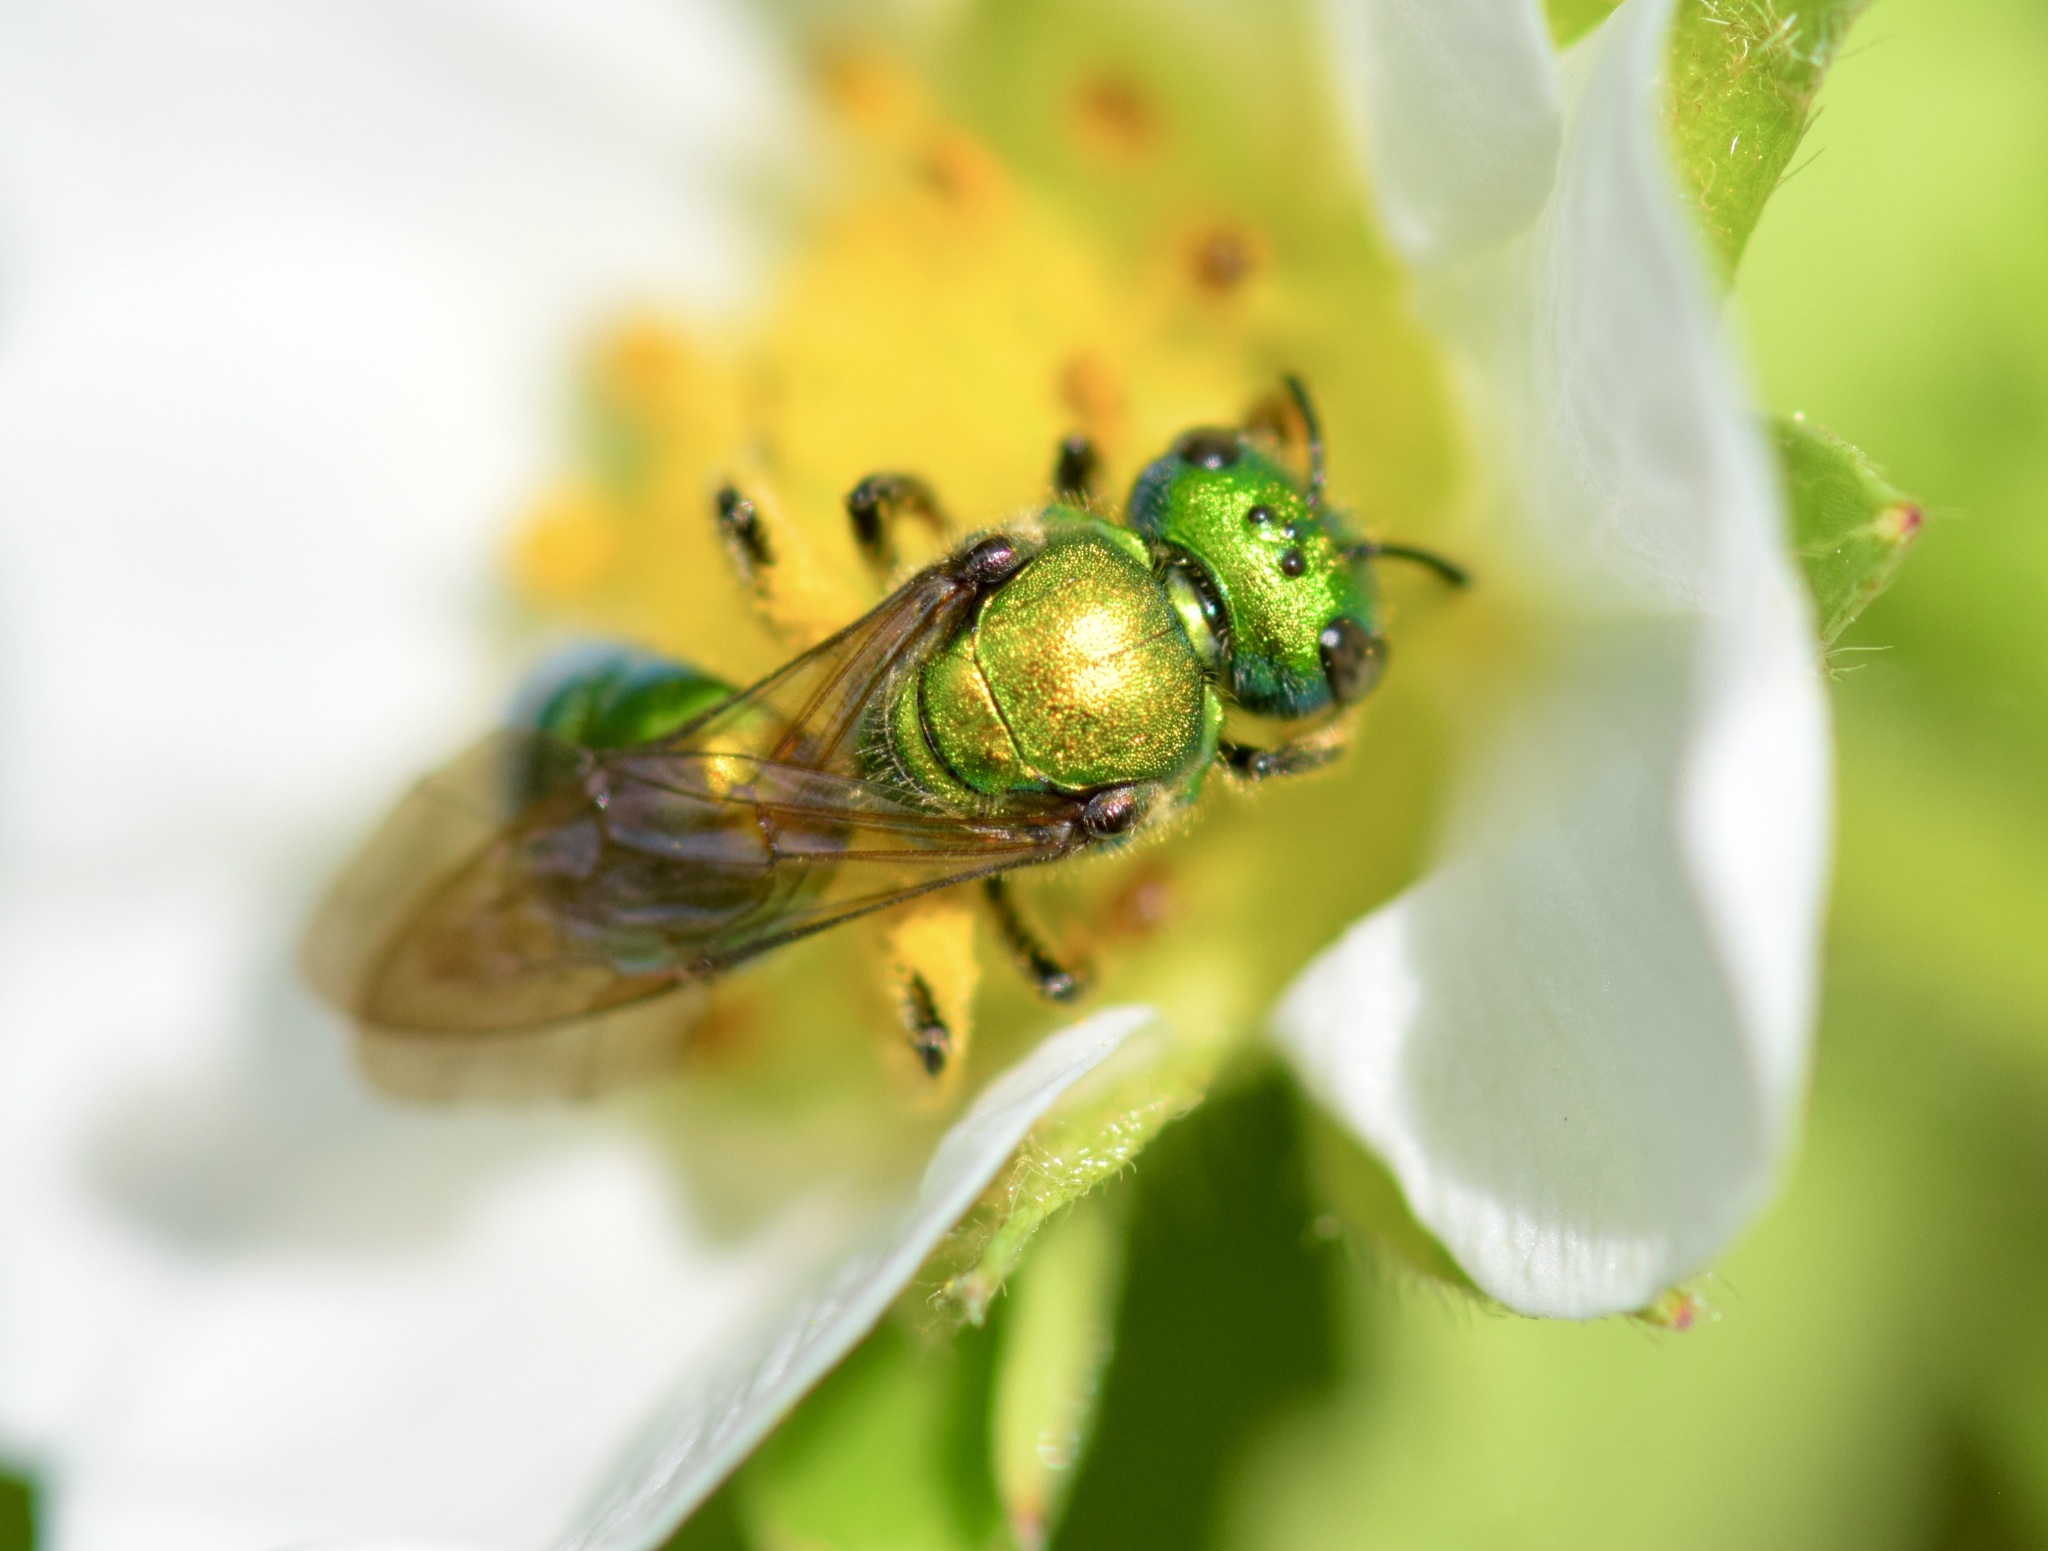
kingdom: Animalia
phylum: Arthropoda
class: Insecta
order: Hymenoptera
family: Halictidae
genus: Augochlora
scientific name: Augochlora pura
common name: Pure green sweat bee
